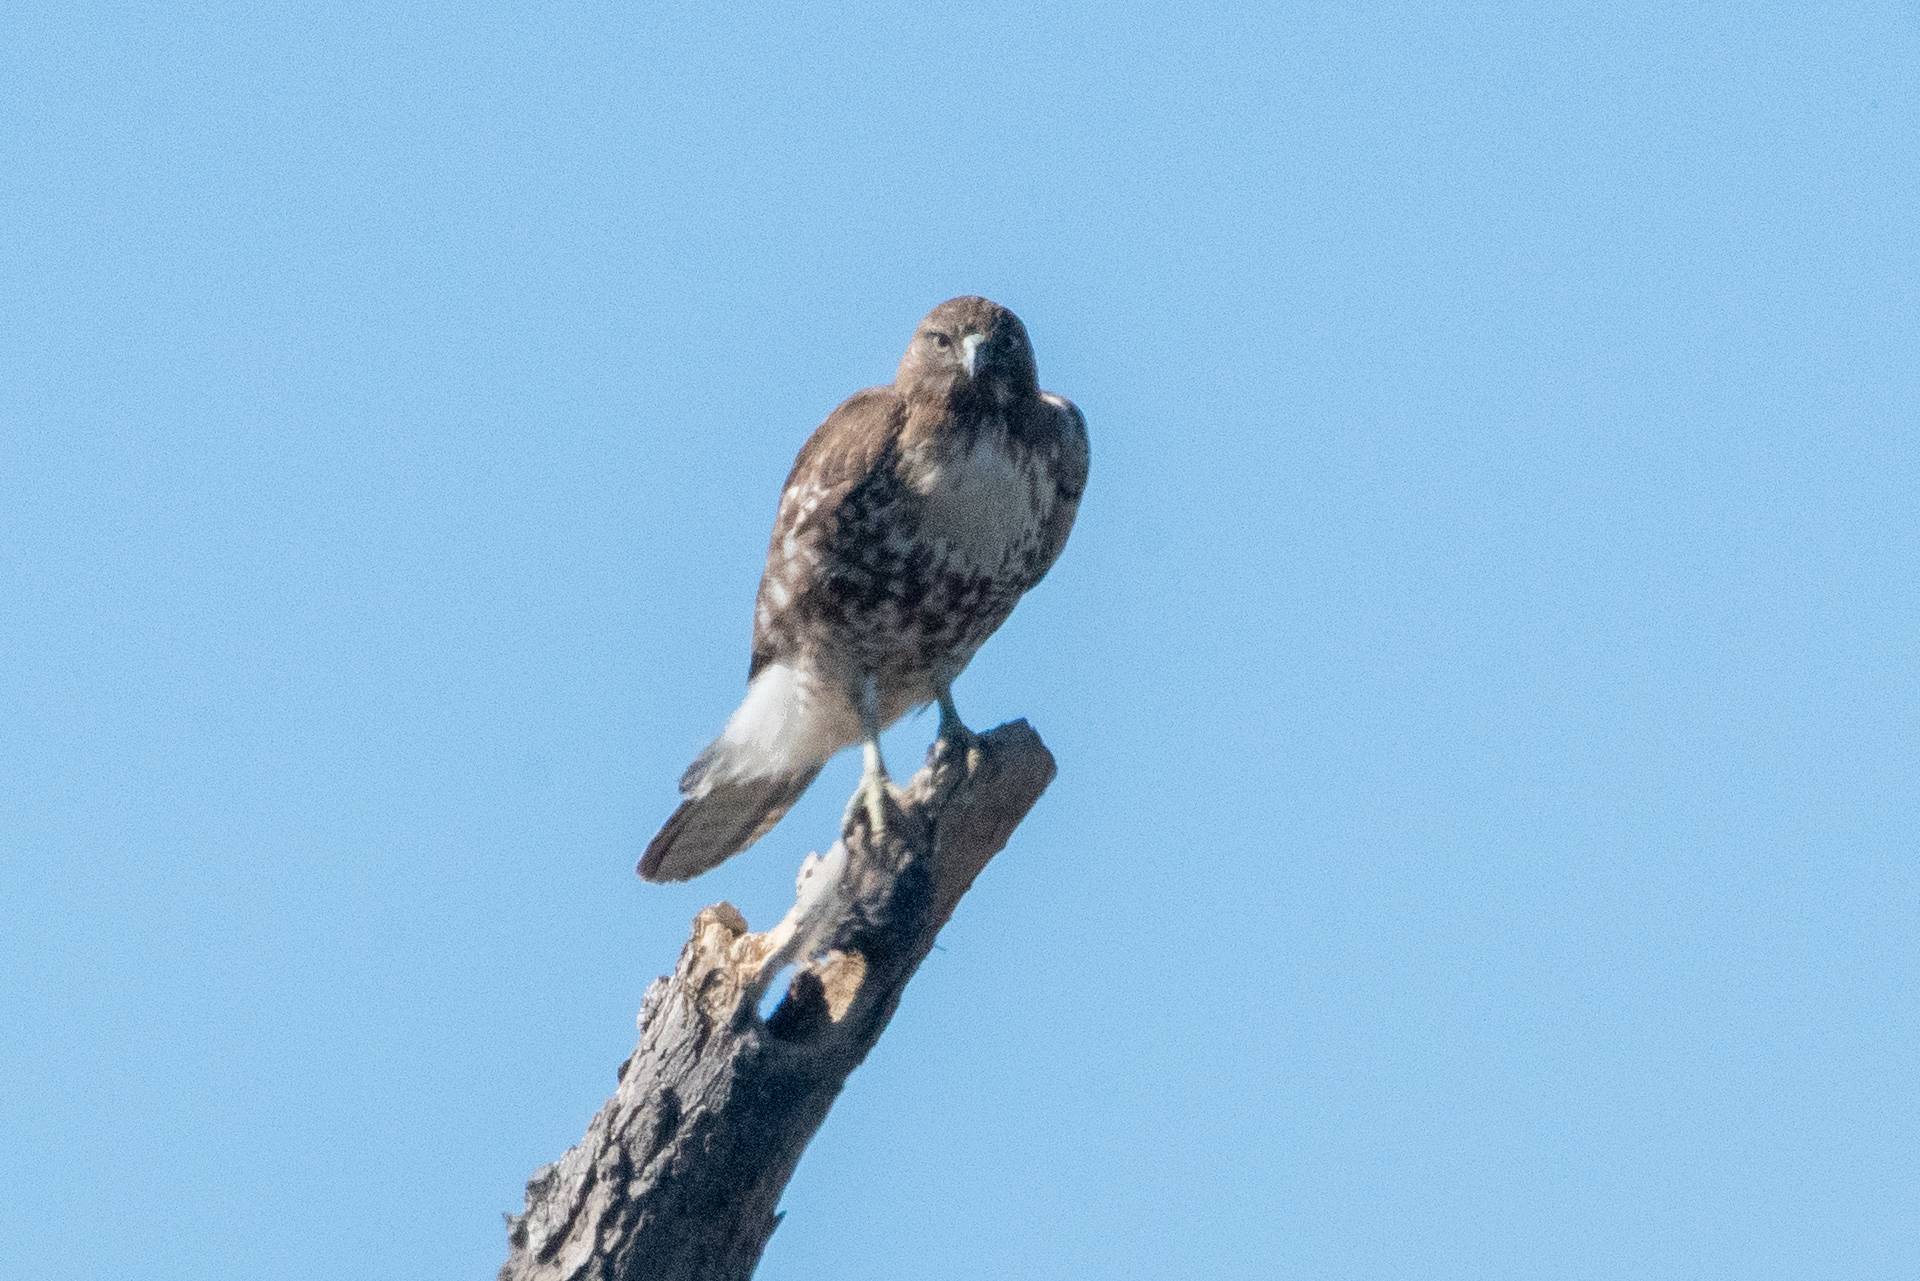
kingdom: Animalia
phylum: Chordata
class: Aves
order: Accipitriformes
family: Accipitridae
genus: Buteo
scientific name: Buteo jamaicensis
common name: Red-tailed hawk
